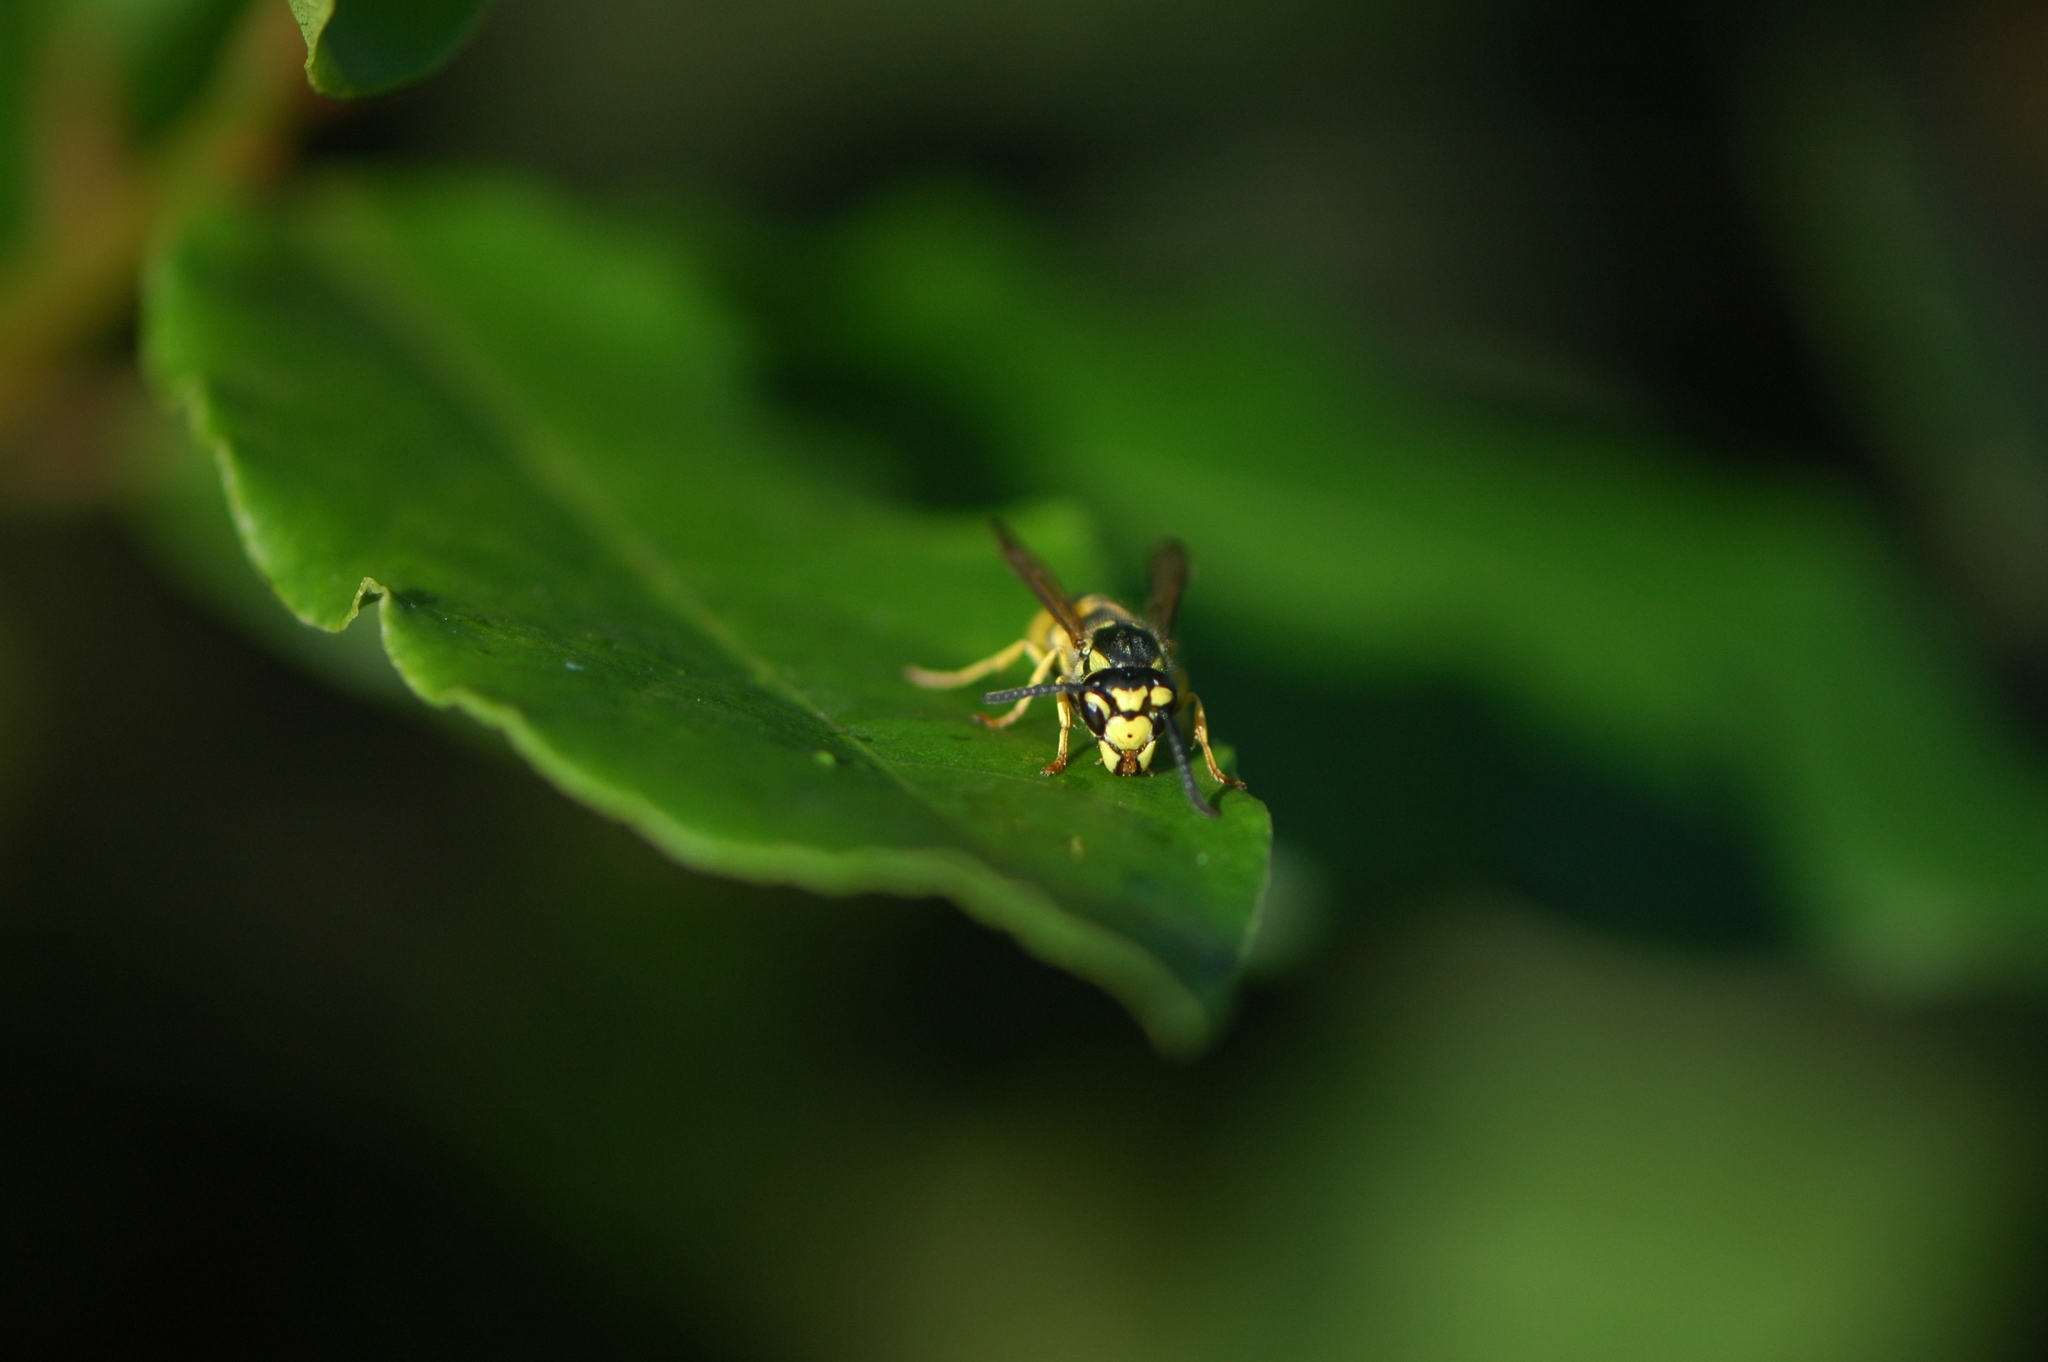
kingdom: Animalia
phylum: Arthropoda
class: Insecta
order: Hymenoptera
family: Vespidae
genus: Vespula
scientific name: Vespula germanica
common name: German wasp
